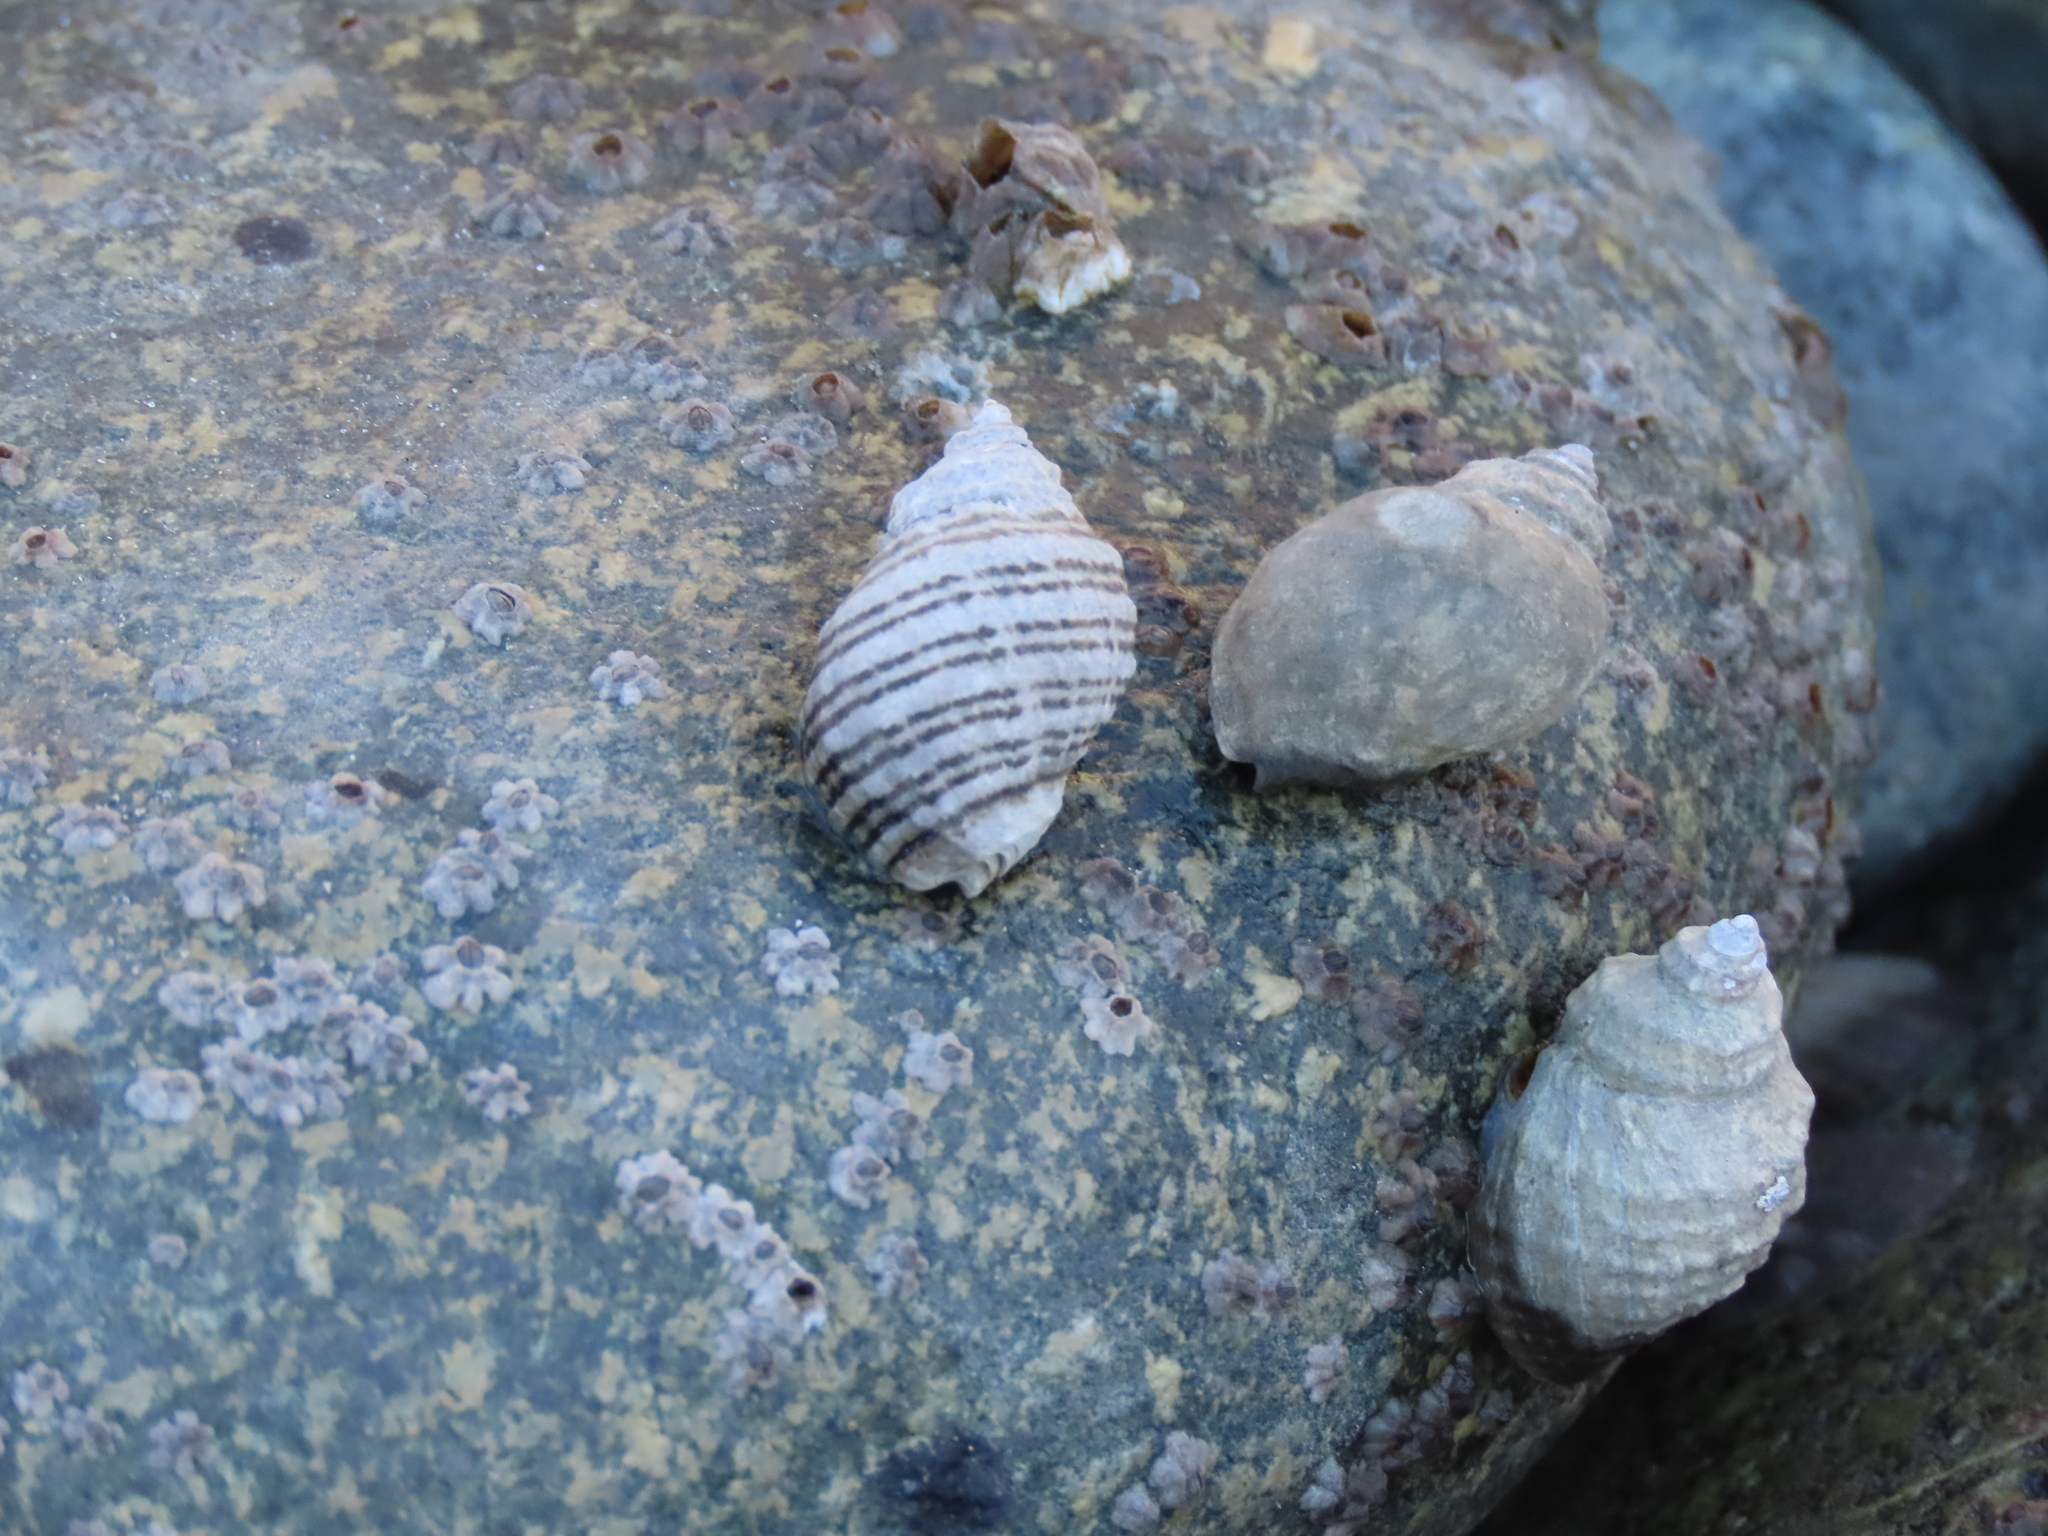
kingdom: Animalia
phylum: Mollusca
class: Gastropoda
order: Neogastropoda
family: Muricidae
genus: Nucella
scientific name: Nucella ostrina
